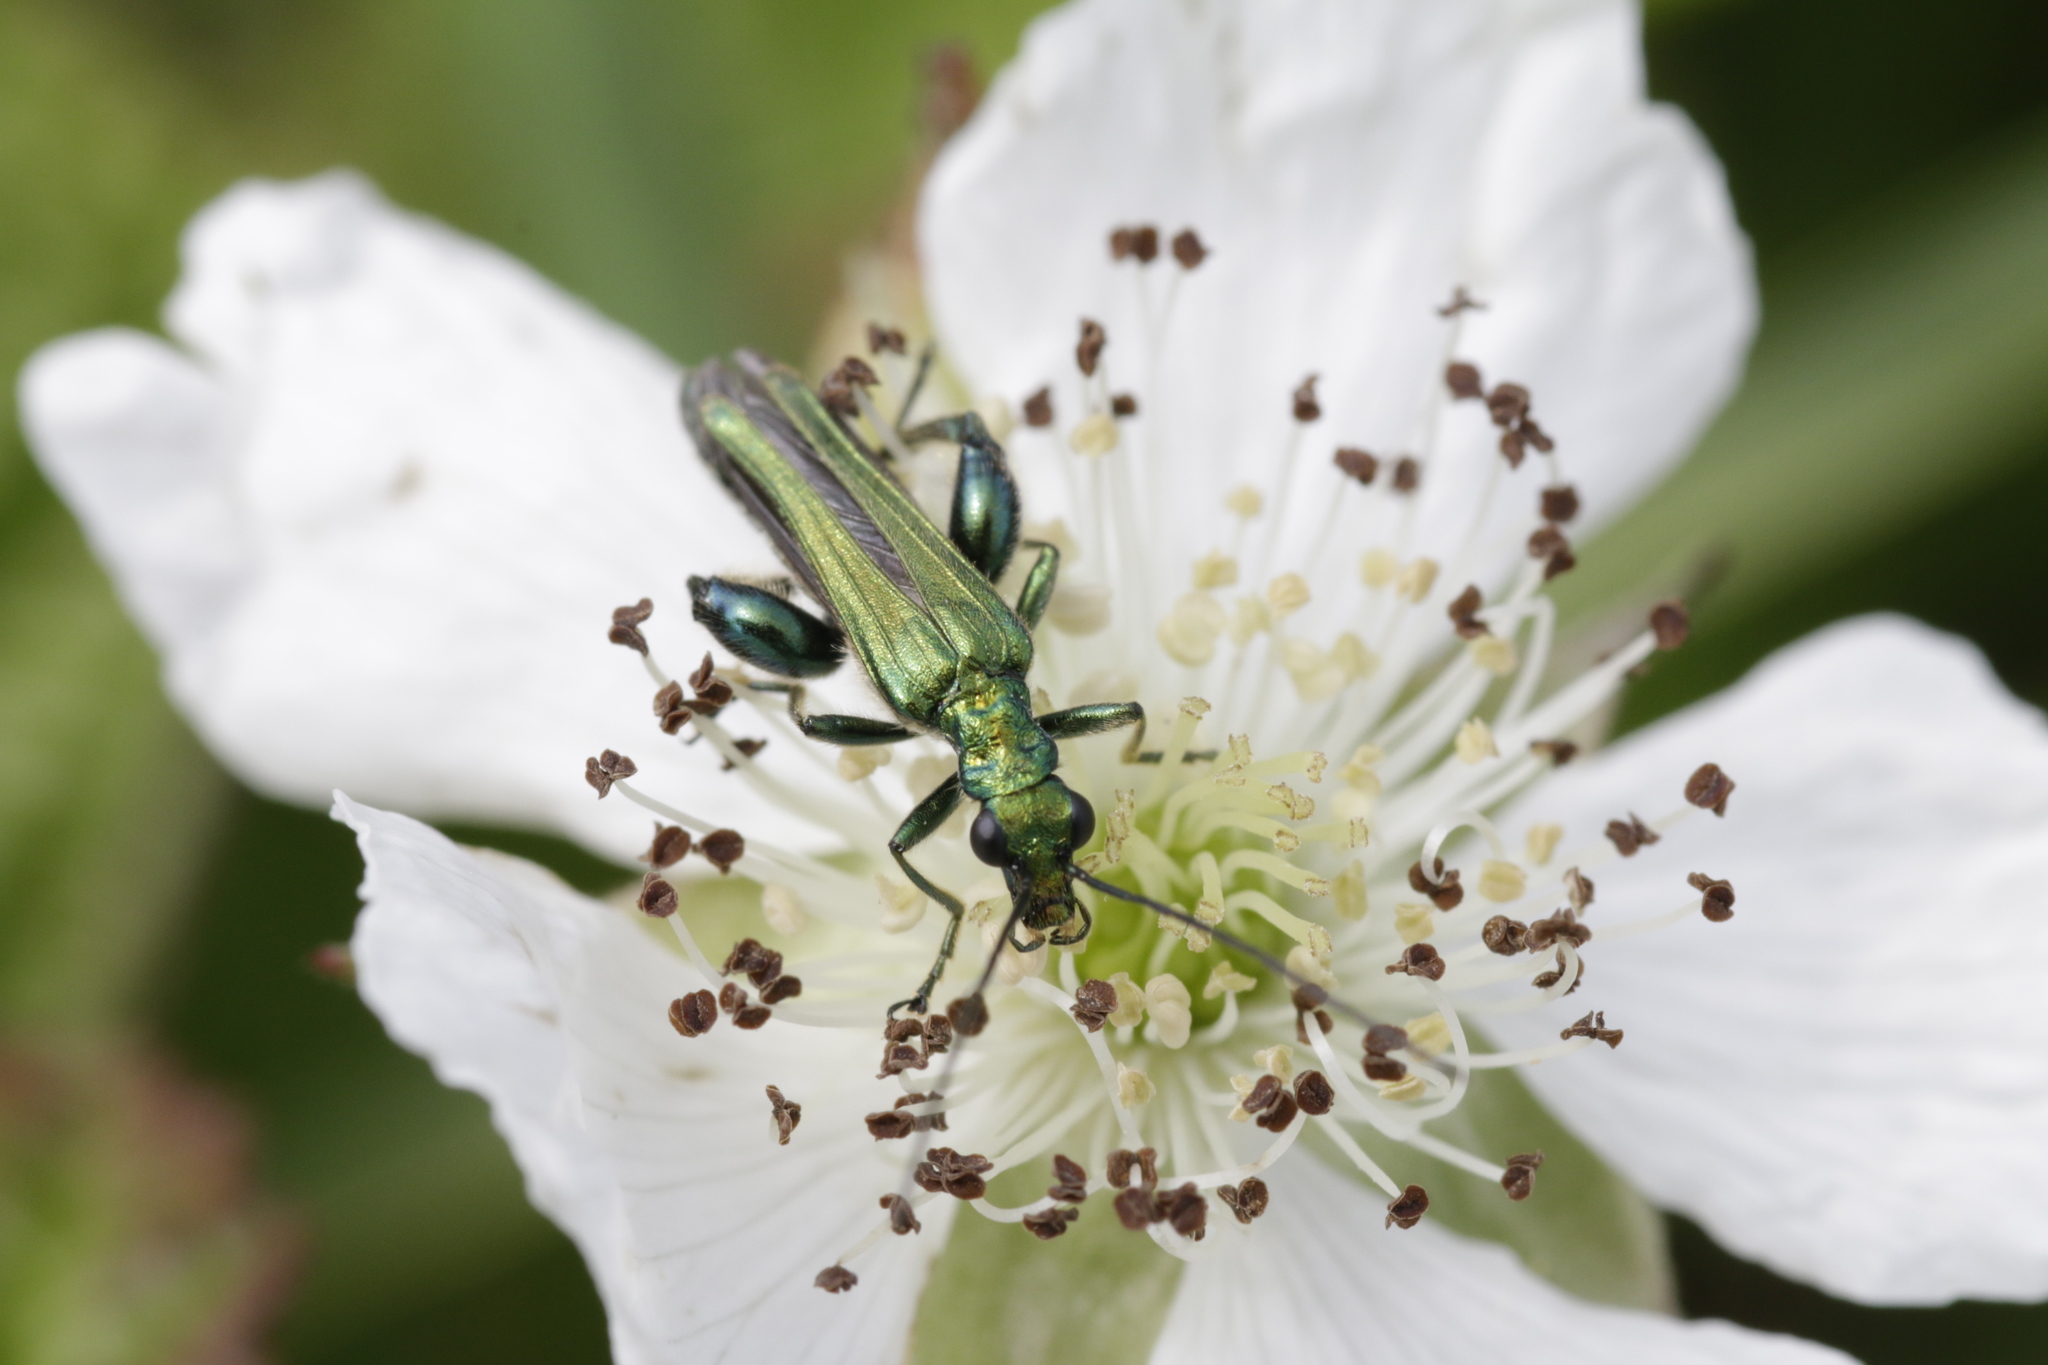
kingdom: Animalia
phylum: Arthropoda
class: Insecta
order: Coleoptera
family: Oedemeridae
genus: Oedemera
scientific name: Oedemera nobilis
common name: Swollen-thighed beetle
